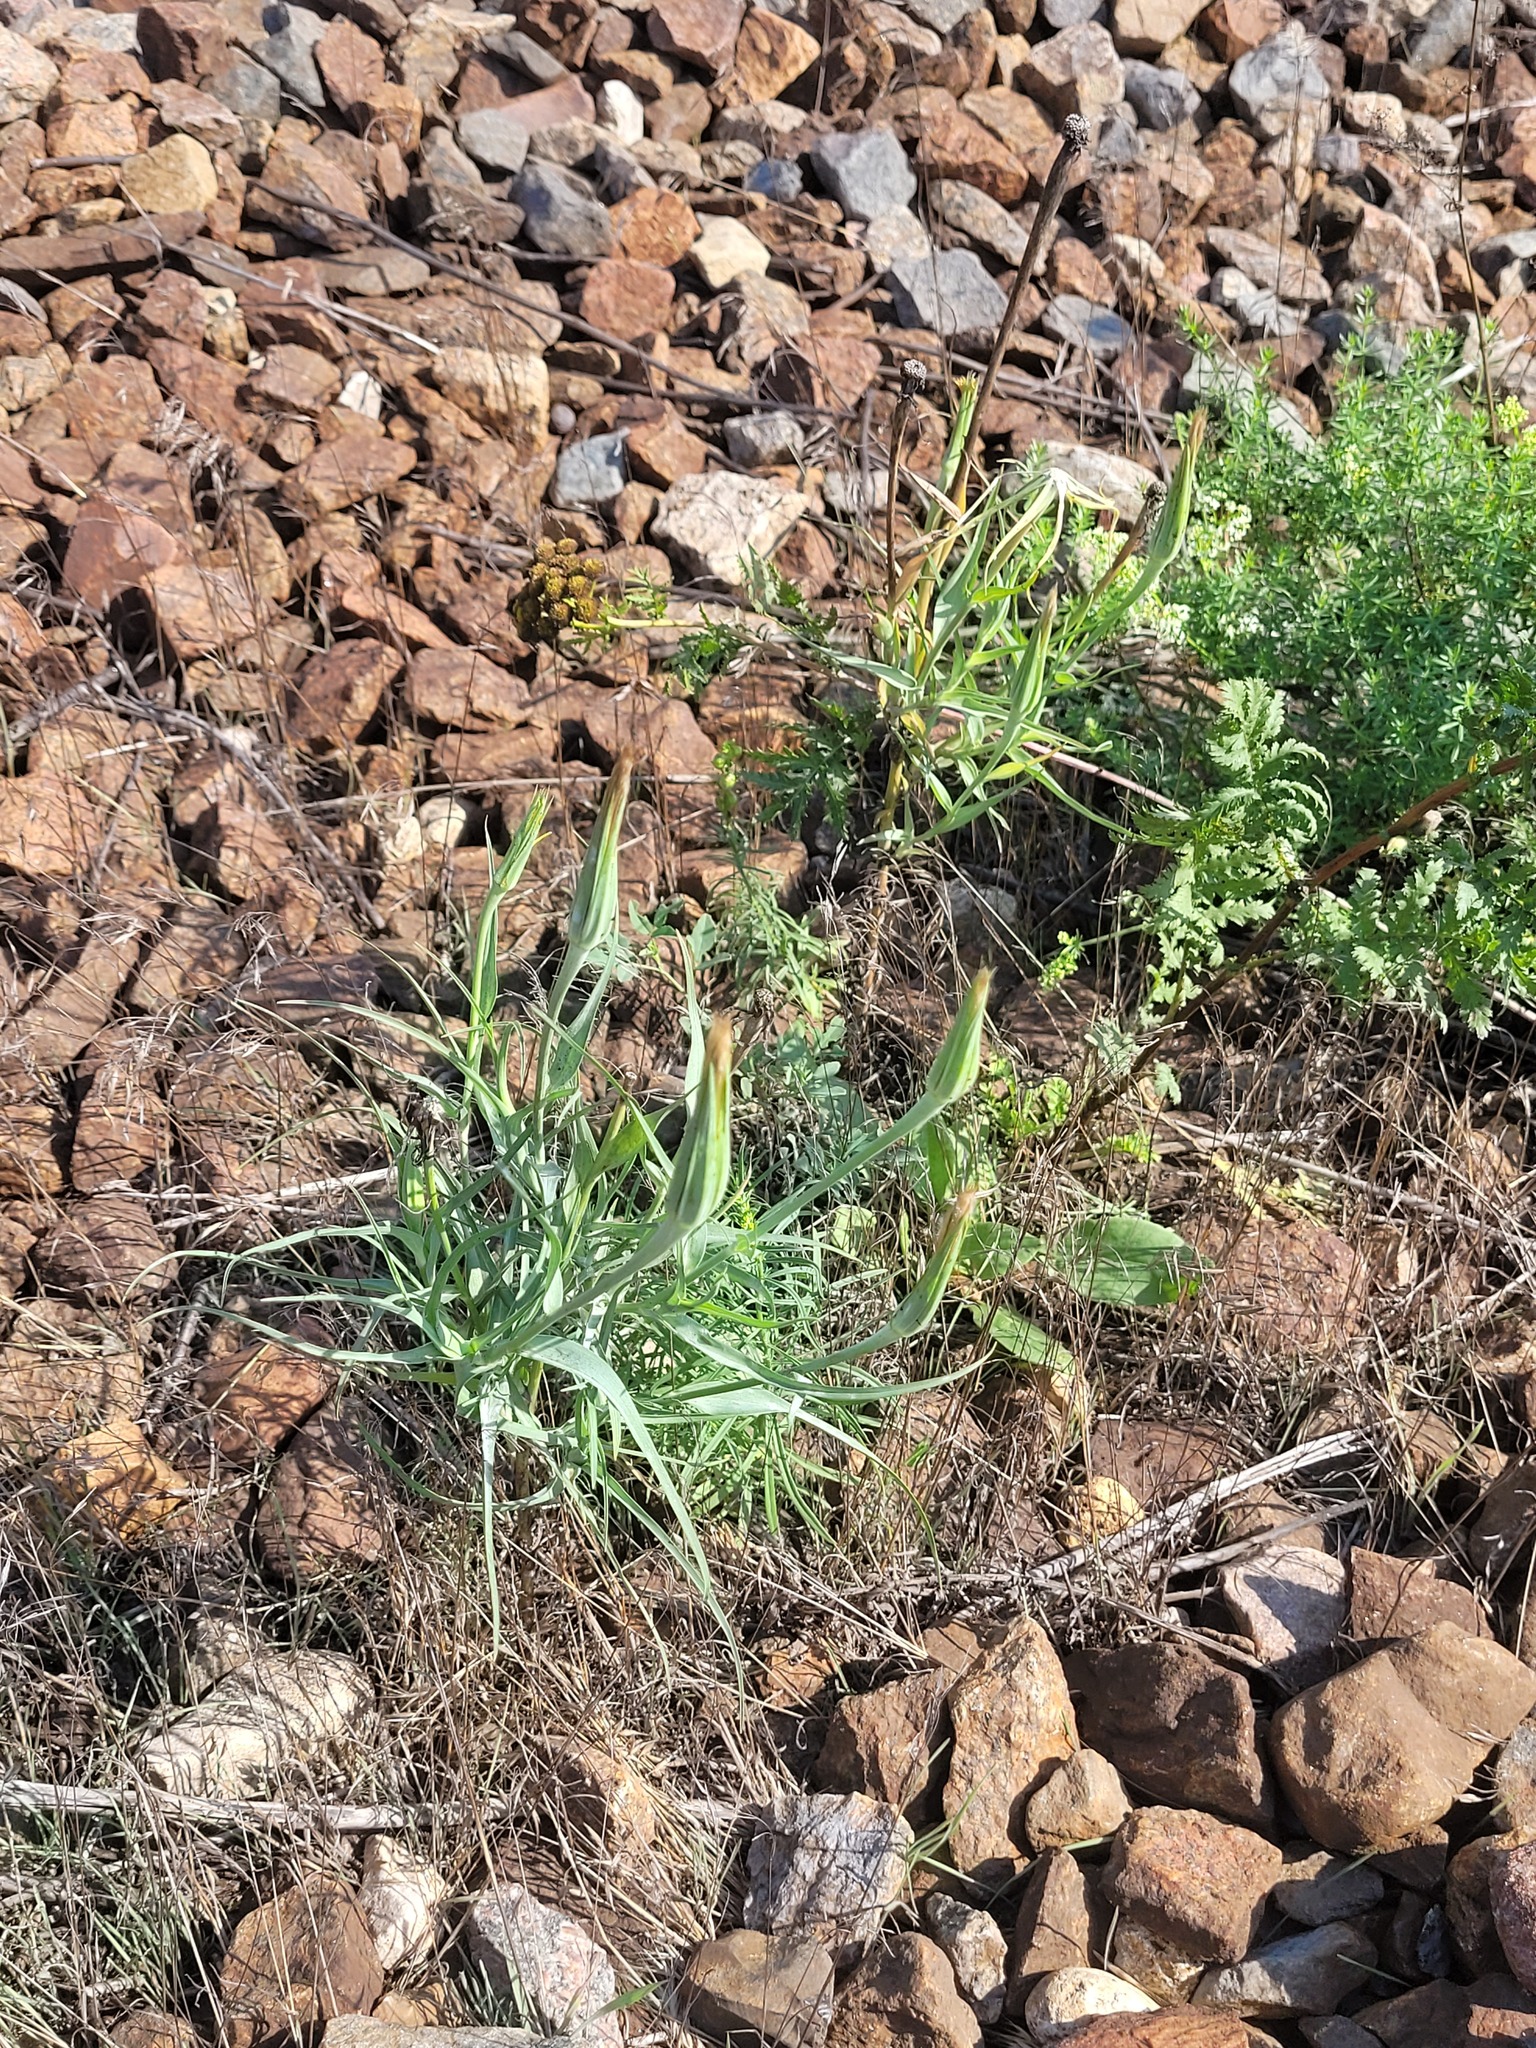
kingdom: Plantae
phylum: Tracheophyta
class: Magnoliopsida
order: Asterales
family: Asteraceae
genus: Tragopogon
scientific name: Tragopogon dubius
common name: Yellow salsify
